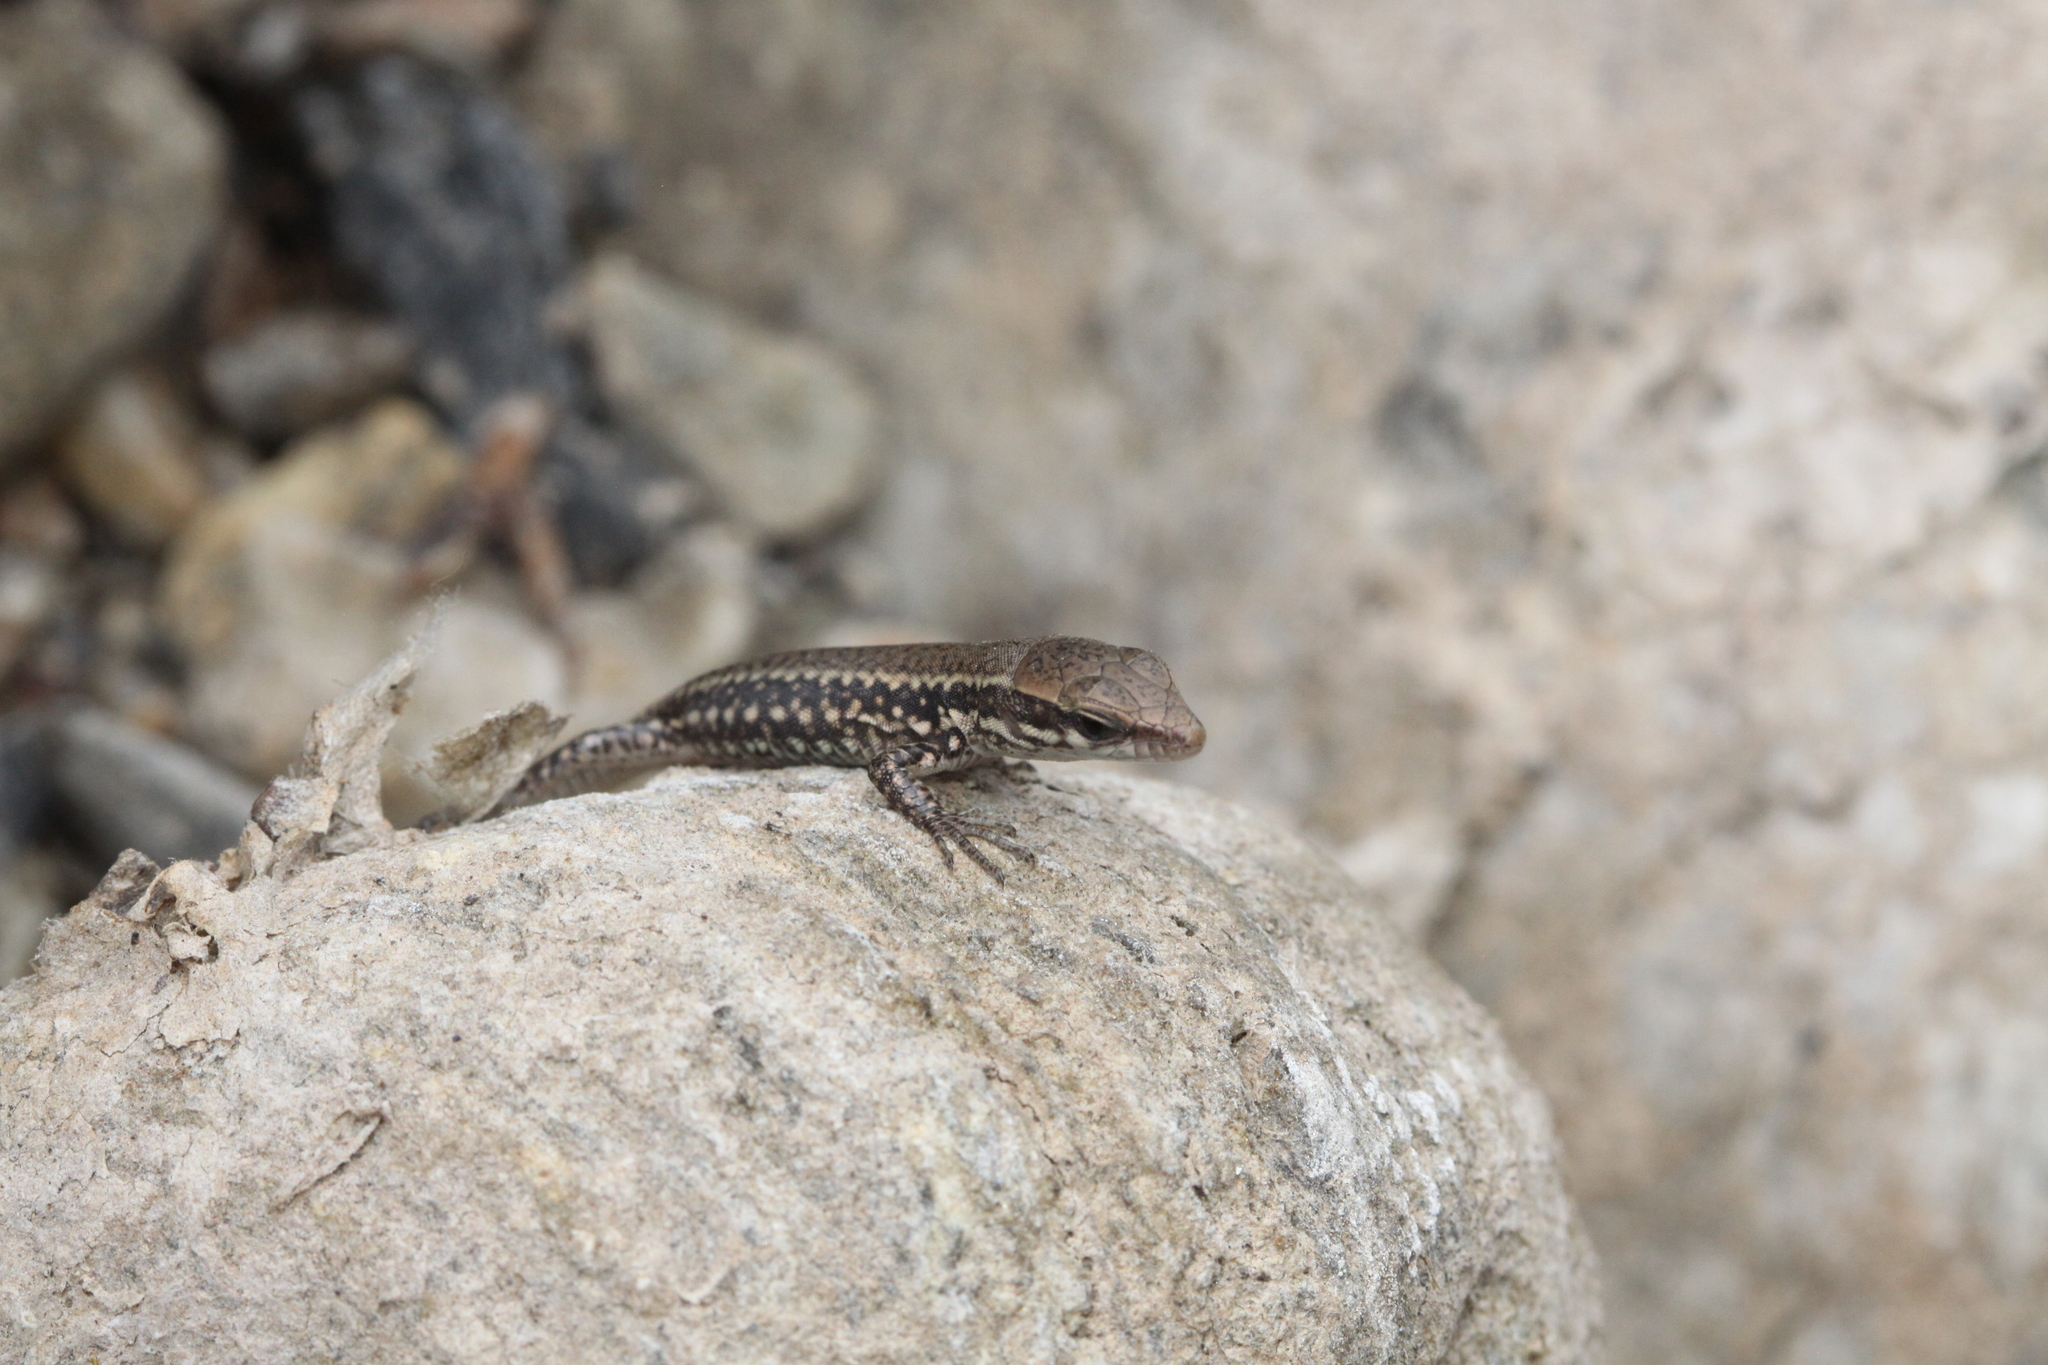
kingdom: Animalia
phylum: Chordata
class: Squamata
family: Lacertidae
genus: Podarcis
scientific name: Podarcis muralis
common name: Common wall lizard
